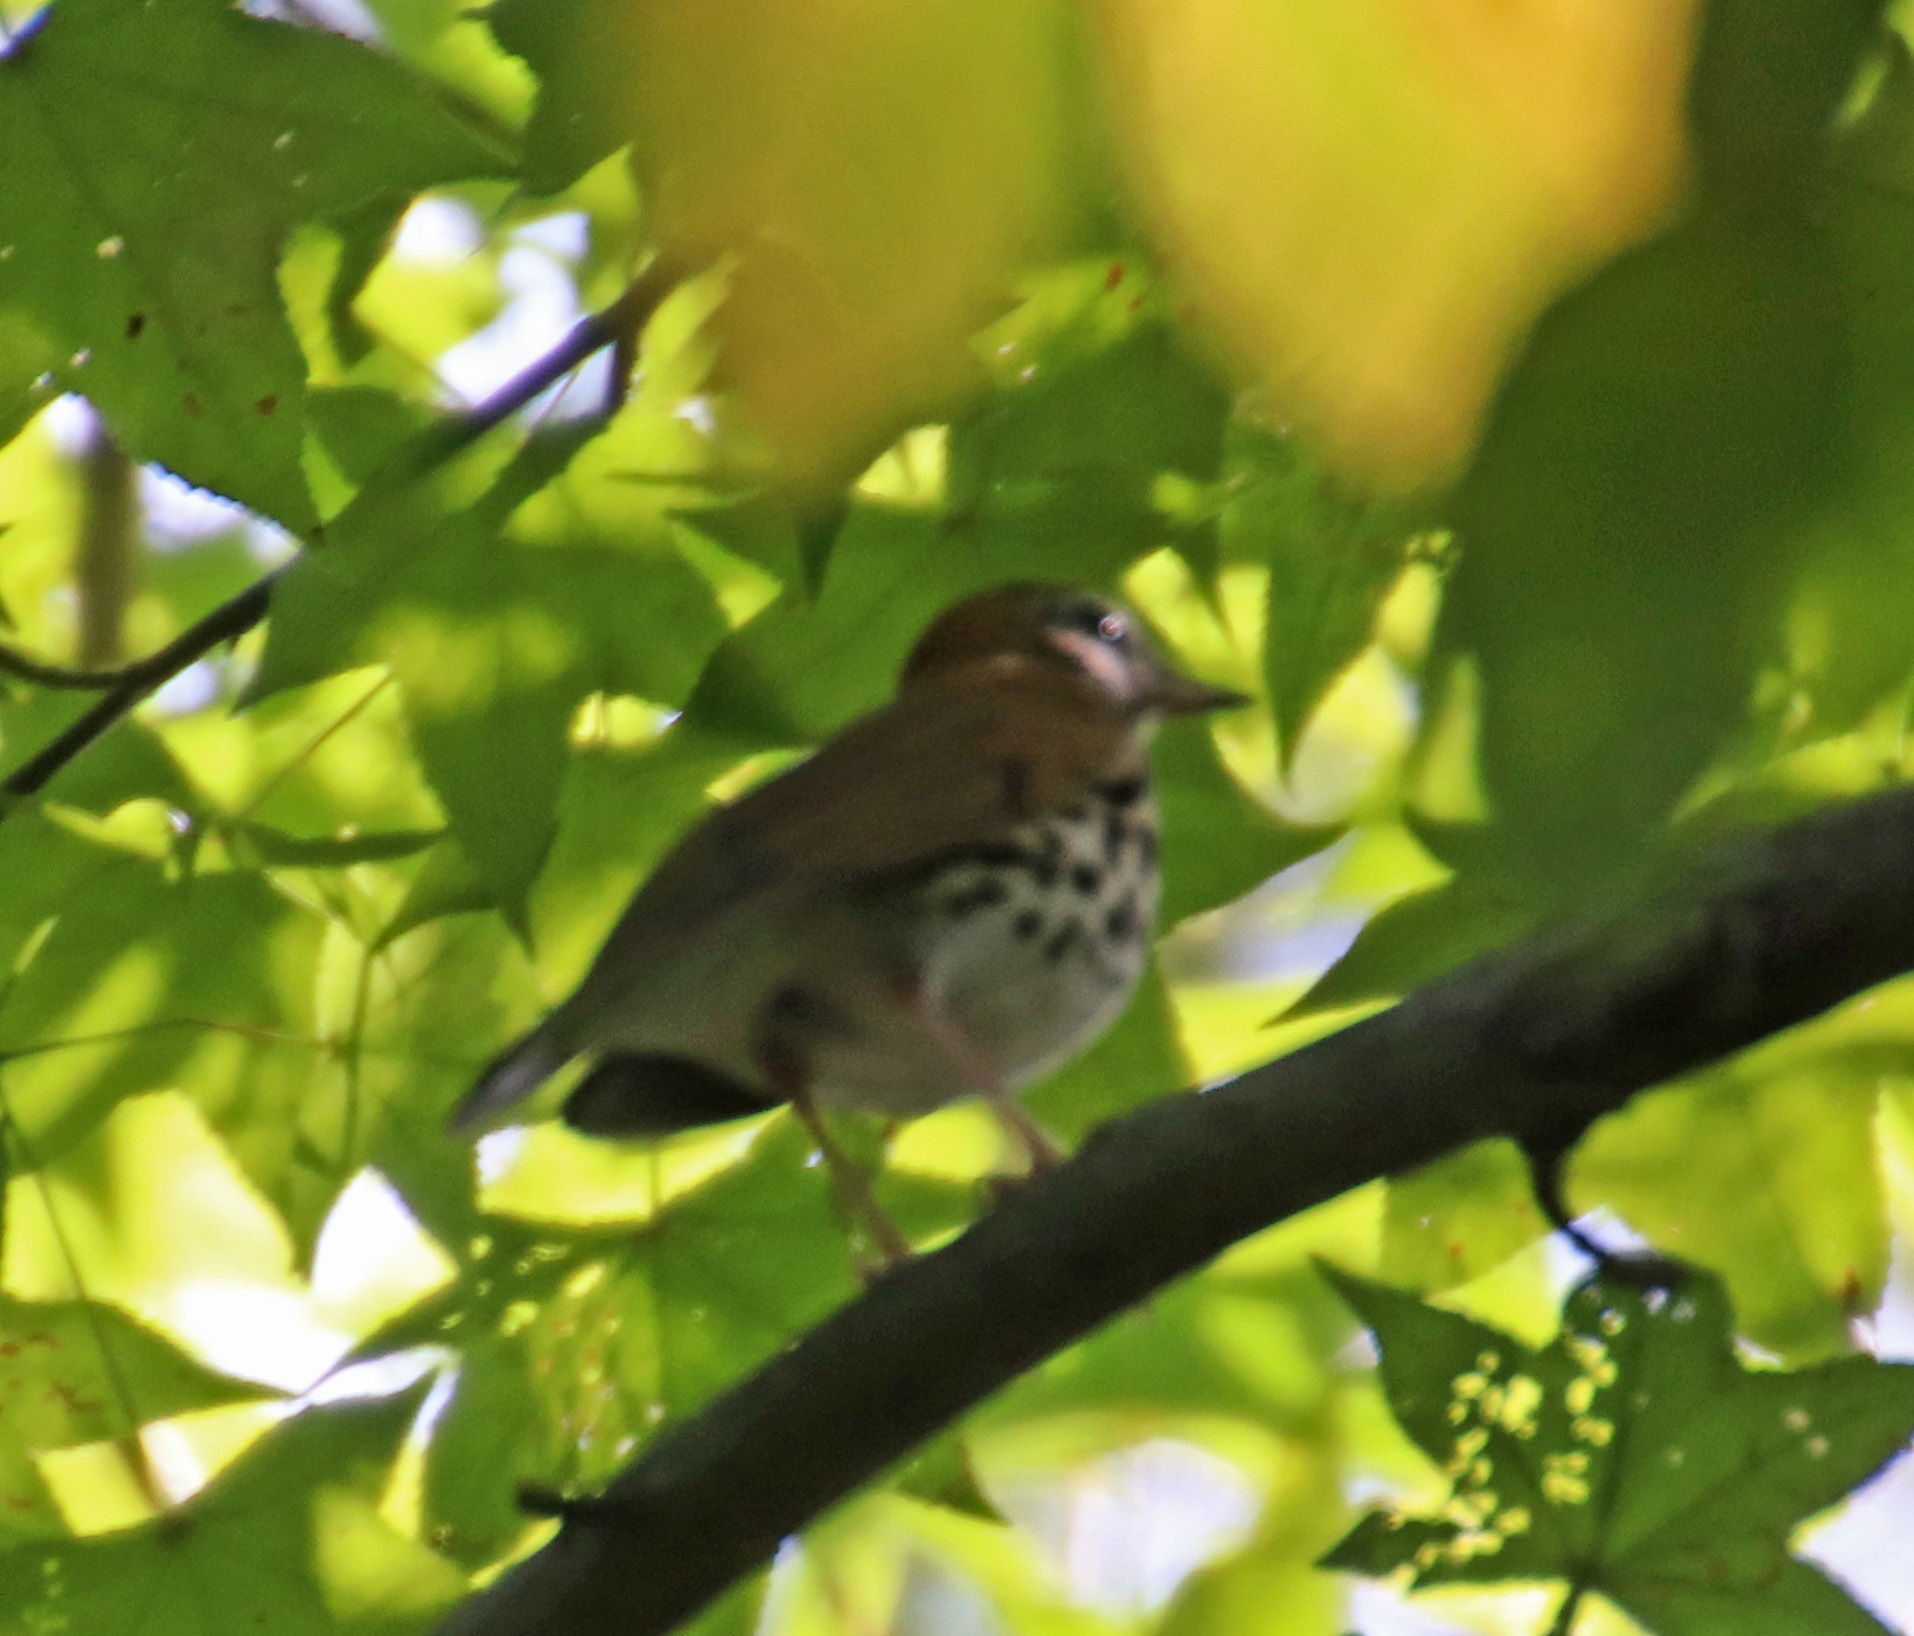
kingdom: Animalia
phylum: Chordata
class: Aves
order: Passeriformes
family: Turdidae
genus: Hylocichla
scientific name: Hylocichla mustelina
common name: Wood thrush
